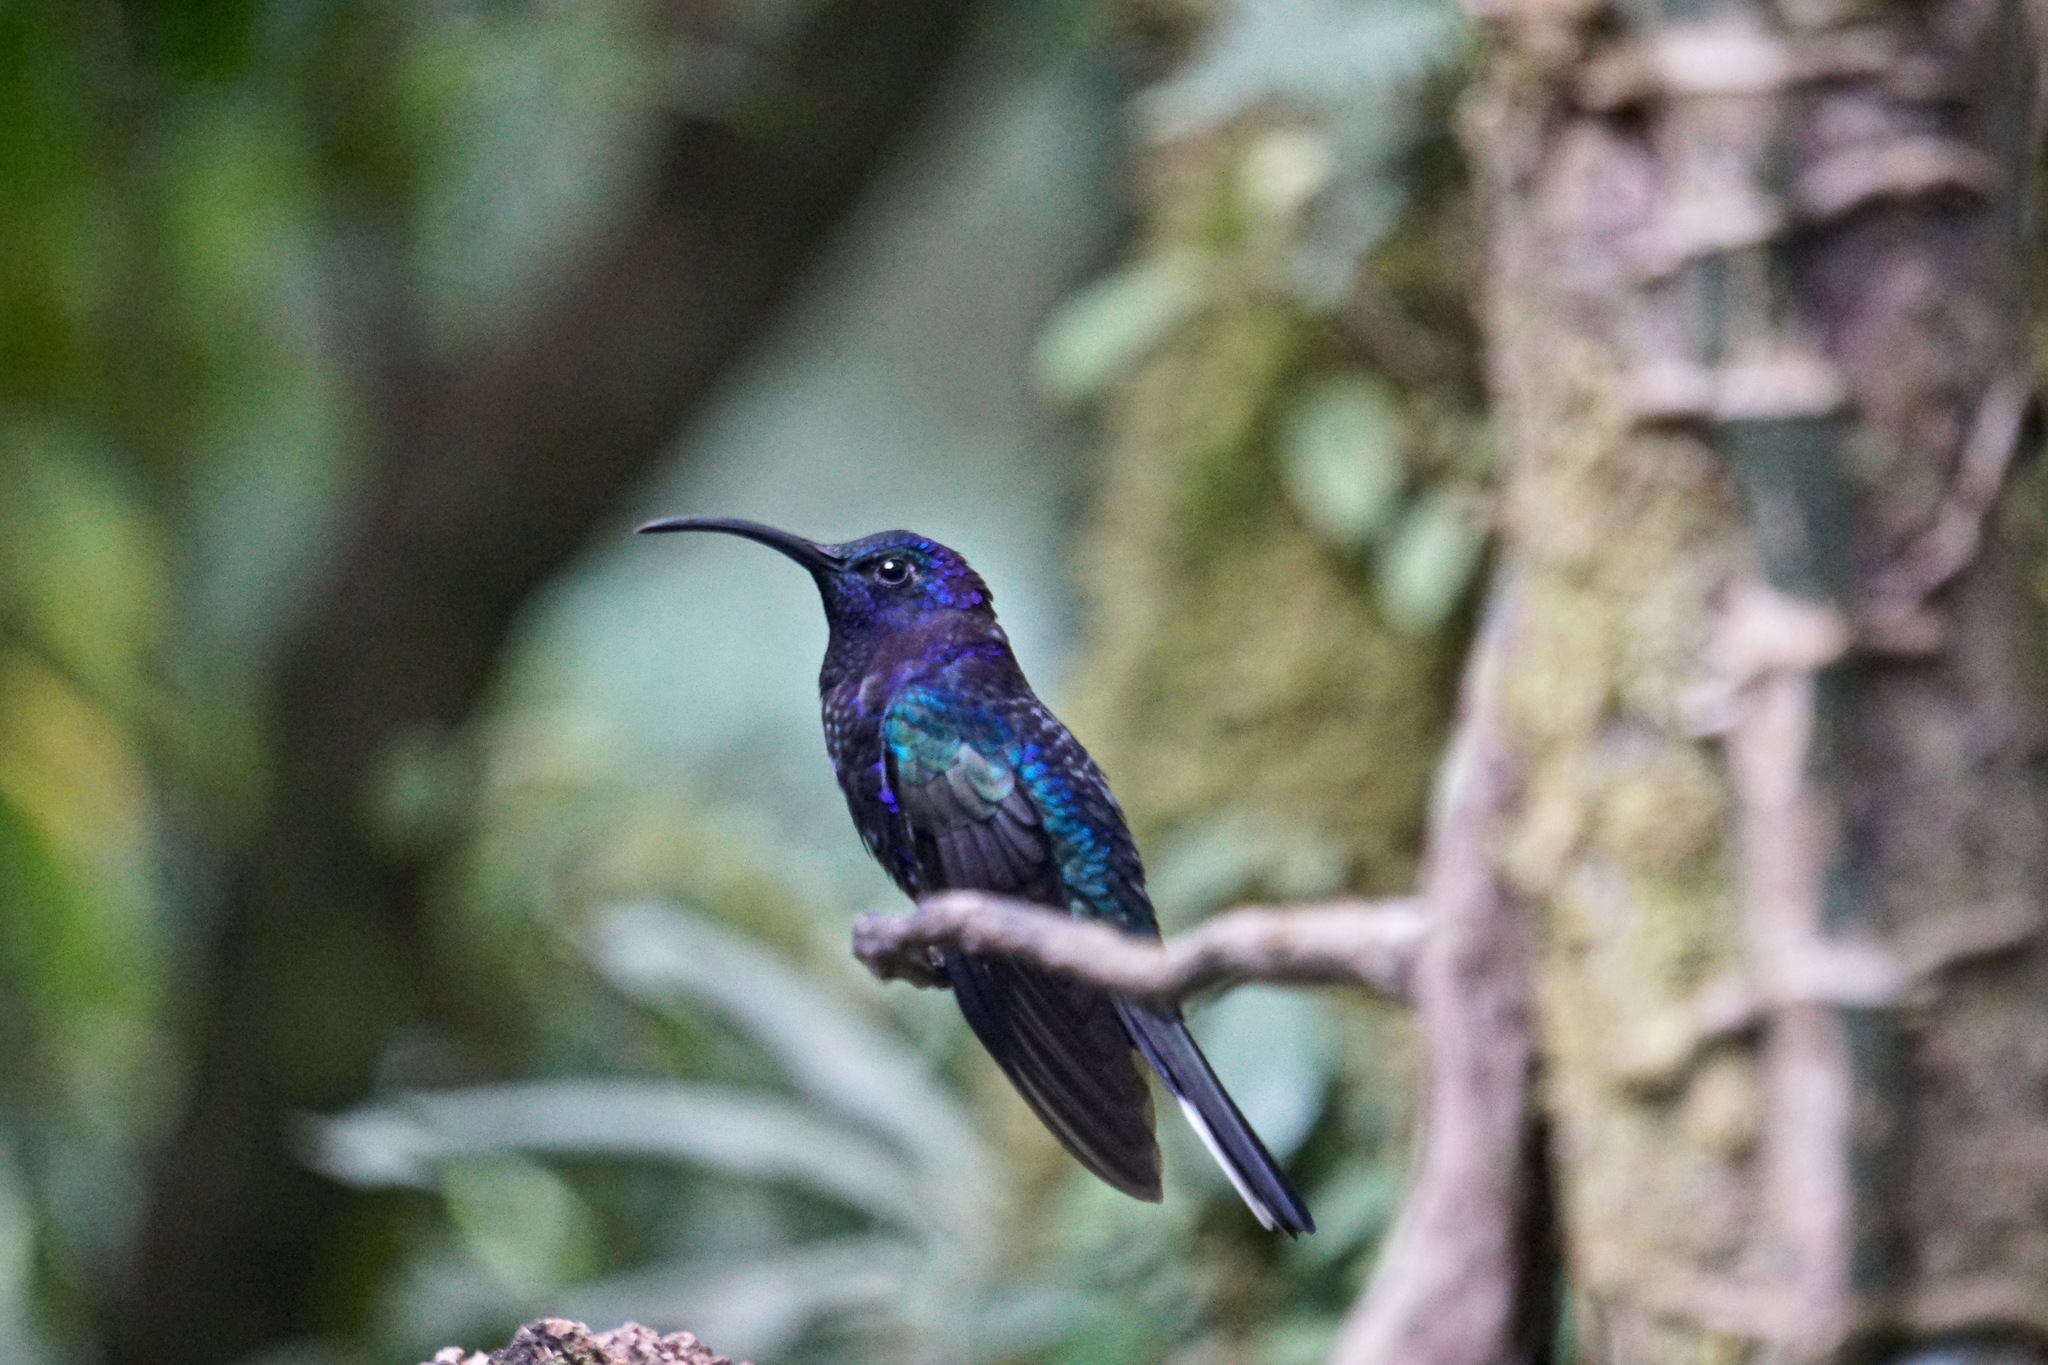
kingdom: Animalia
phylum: Chordata
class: Aves
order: Apodiformes
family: Trochilidae
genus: Campylopterus
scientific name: Campylopterus hemileucurus
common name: Violet sabrewing
